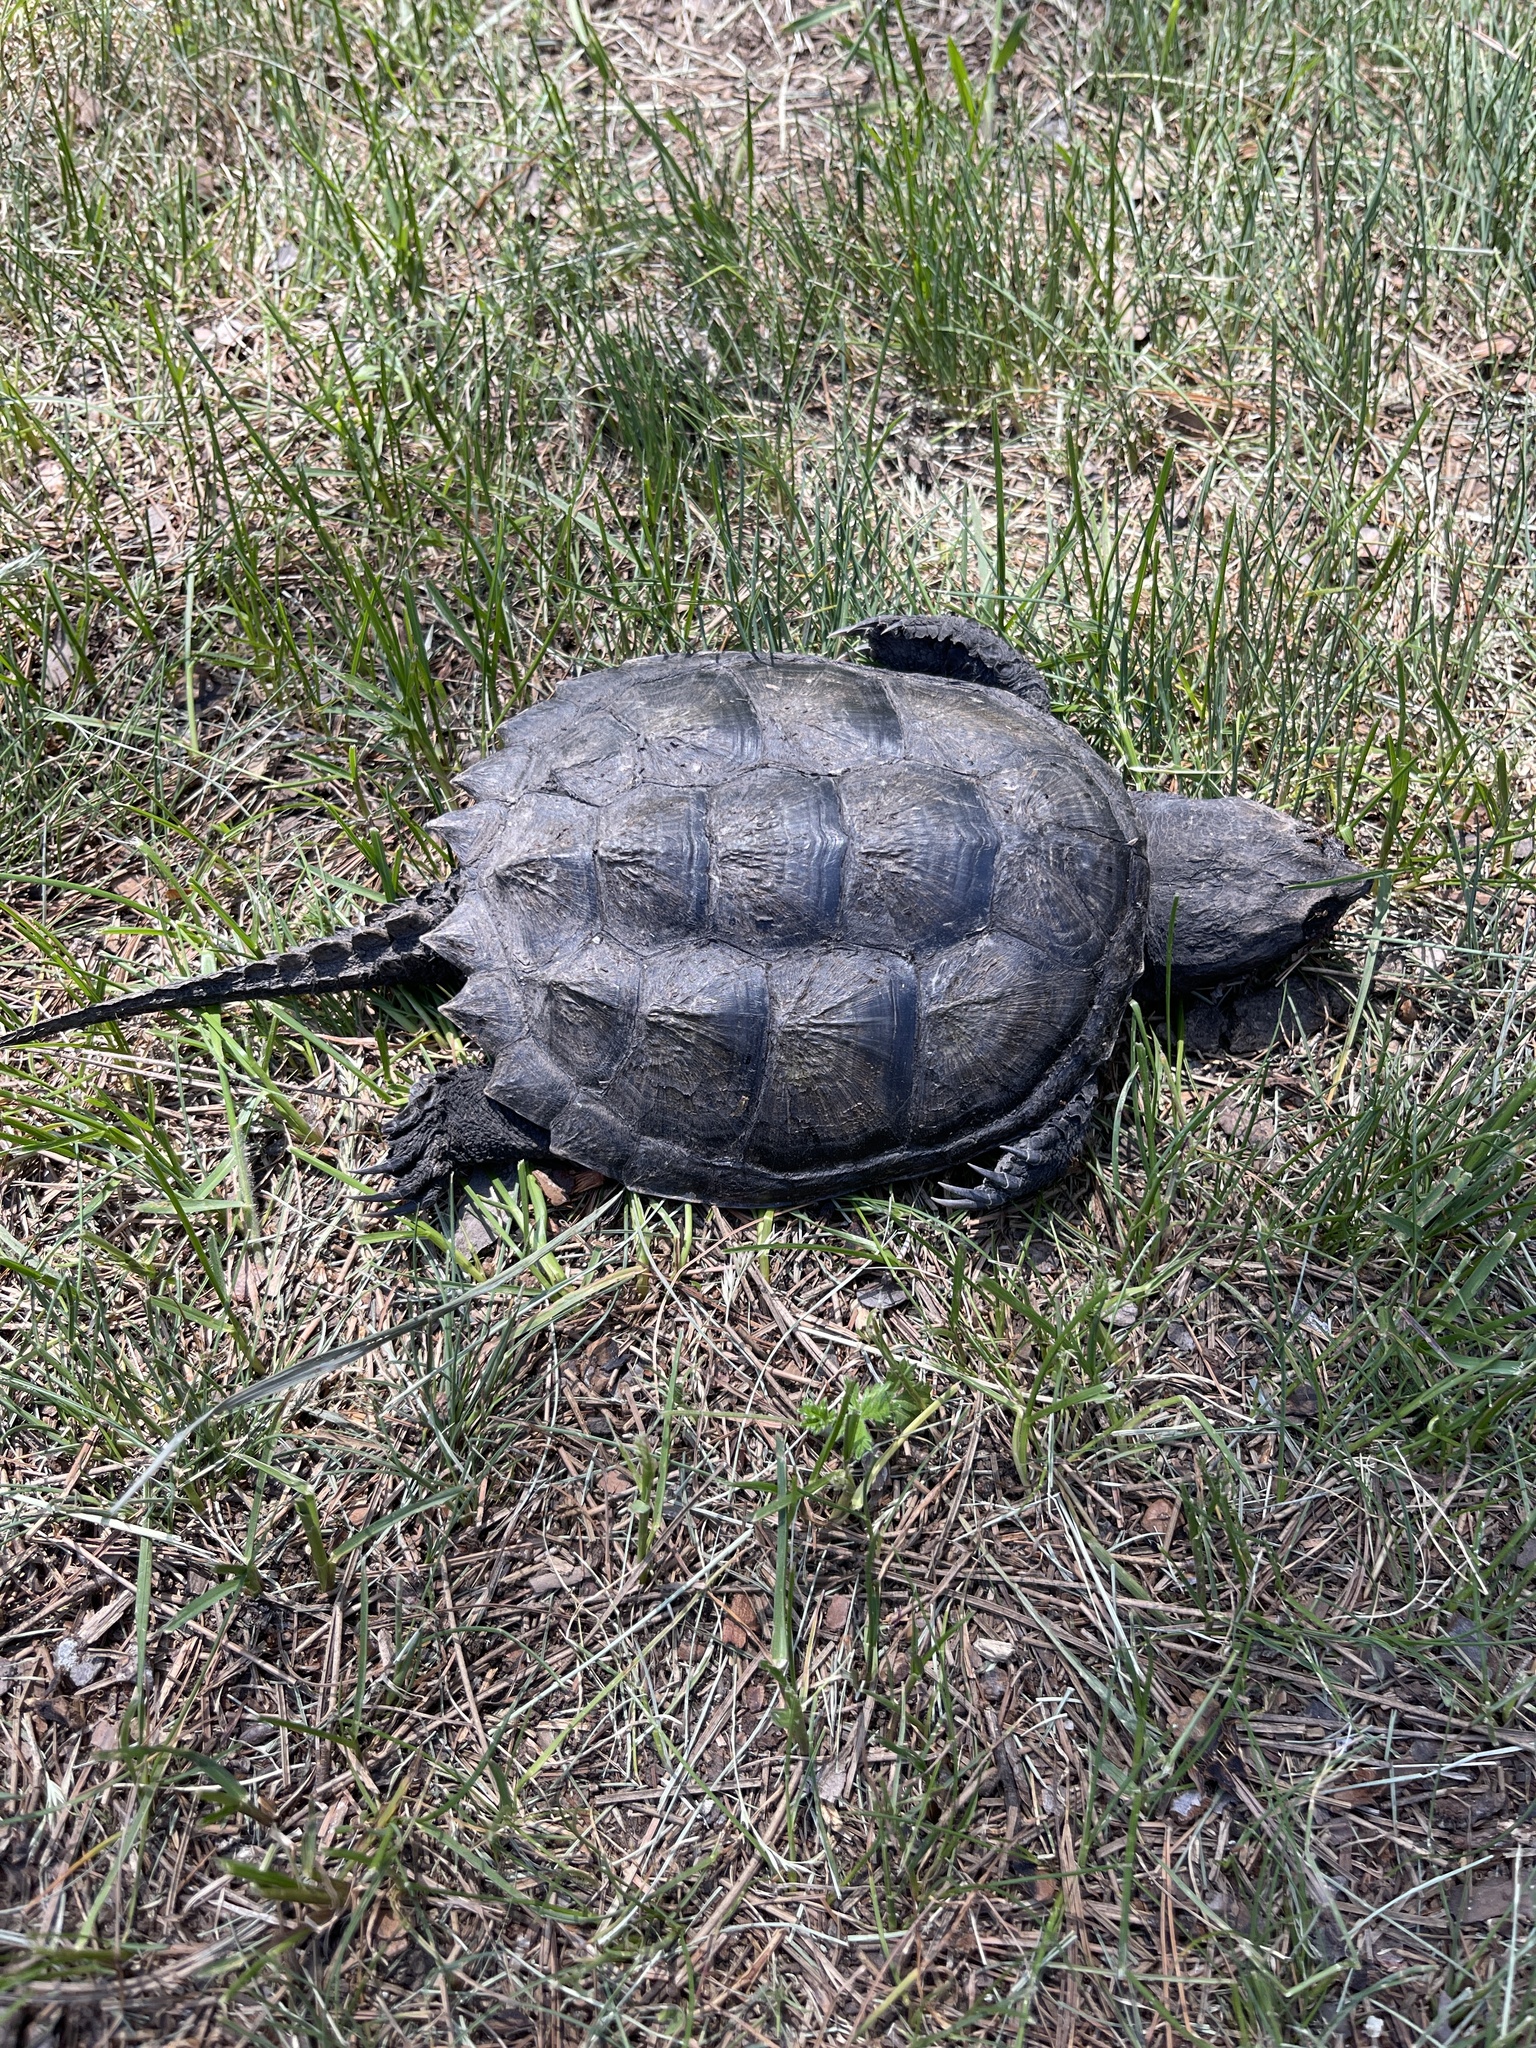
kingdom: Animalia
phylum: Chordata
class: Testudines
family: Chelydridae
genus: Chelydra
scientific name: Chelydra serpentina
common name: Common snapping turtle
